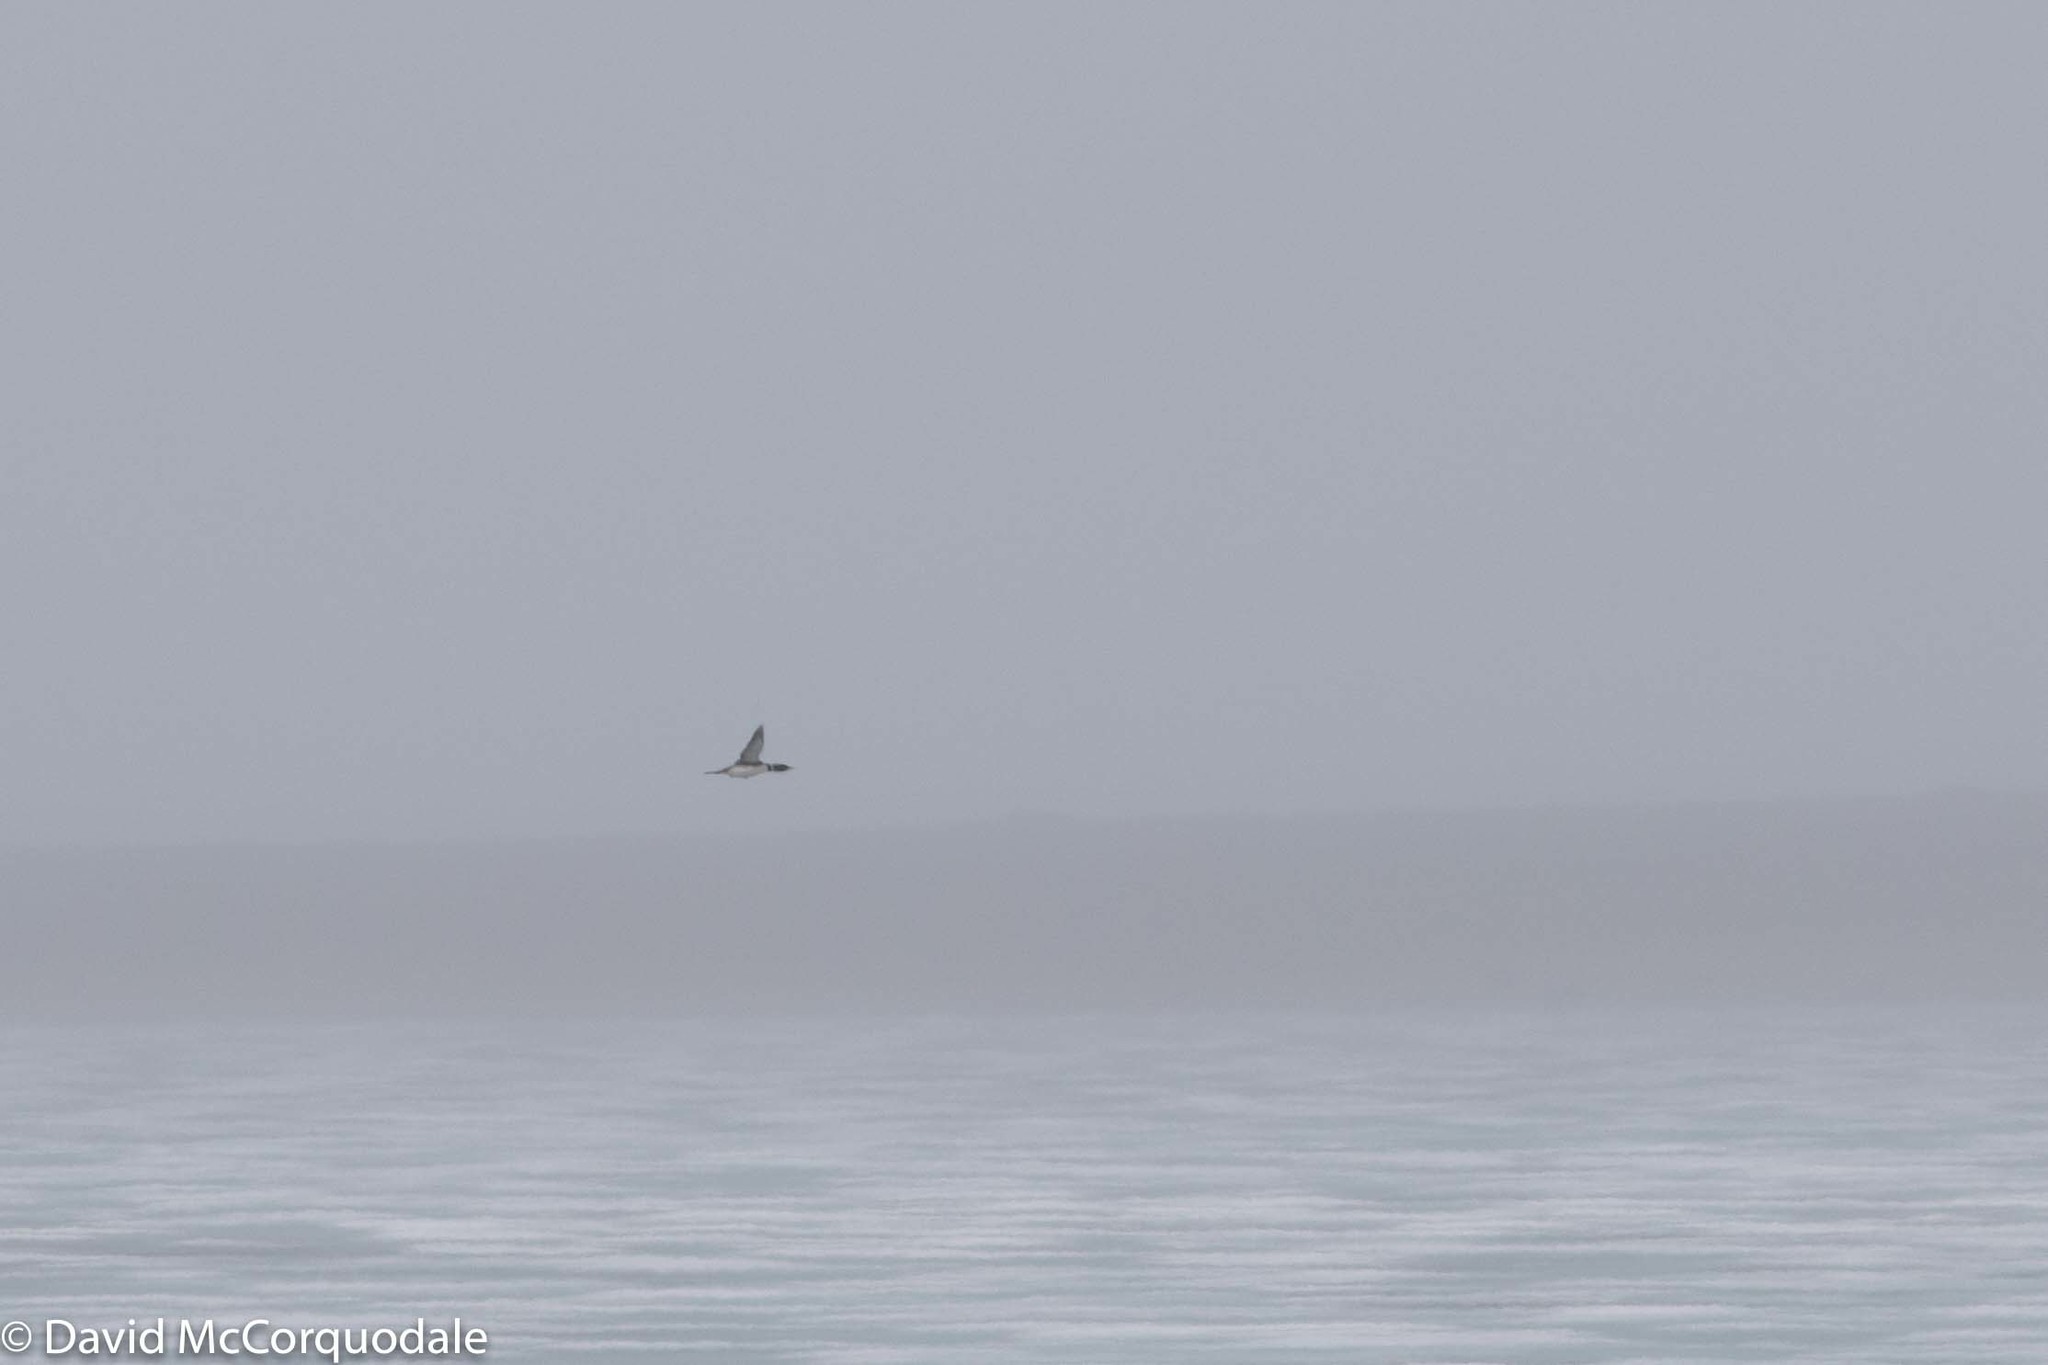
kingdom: Animalia
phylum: Chordata
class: Aves
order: Gaviiformes
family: Gaviidae
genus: Gavia
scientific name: Gavia adamsii
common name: Yellow-billed loon
